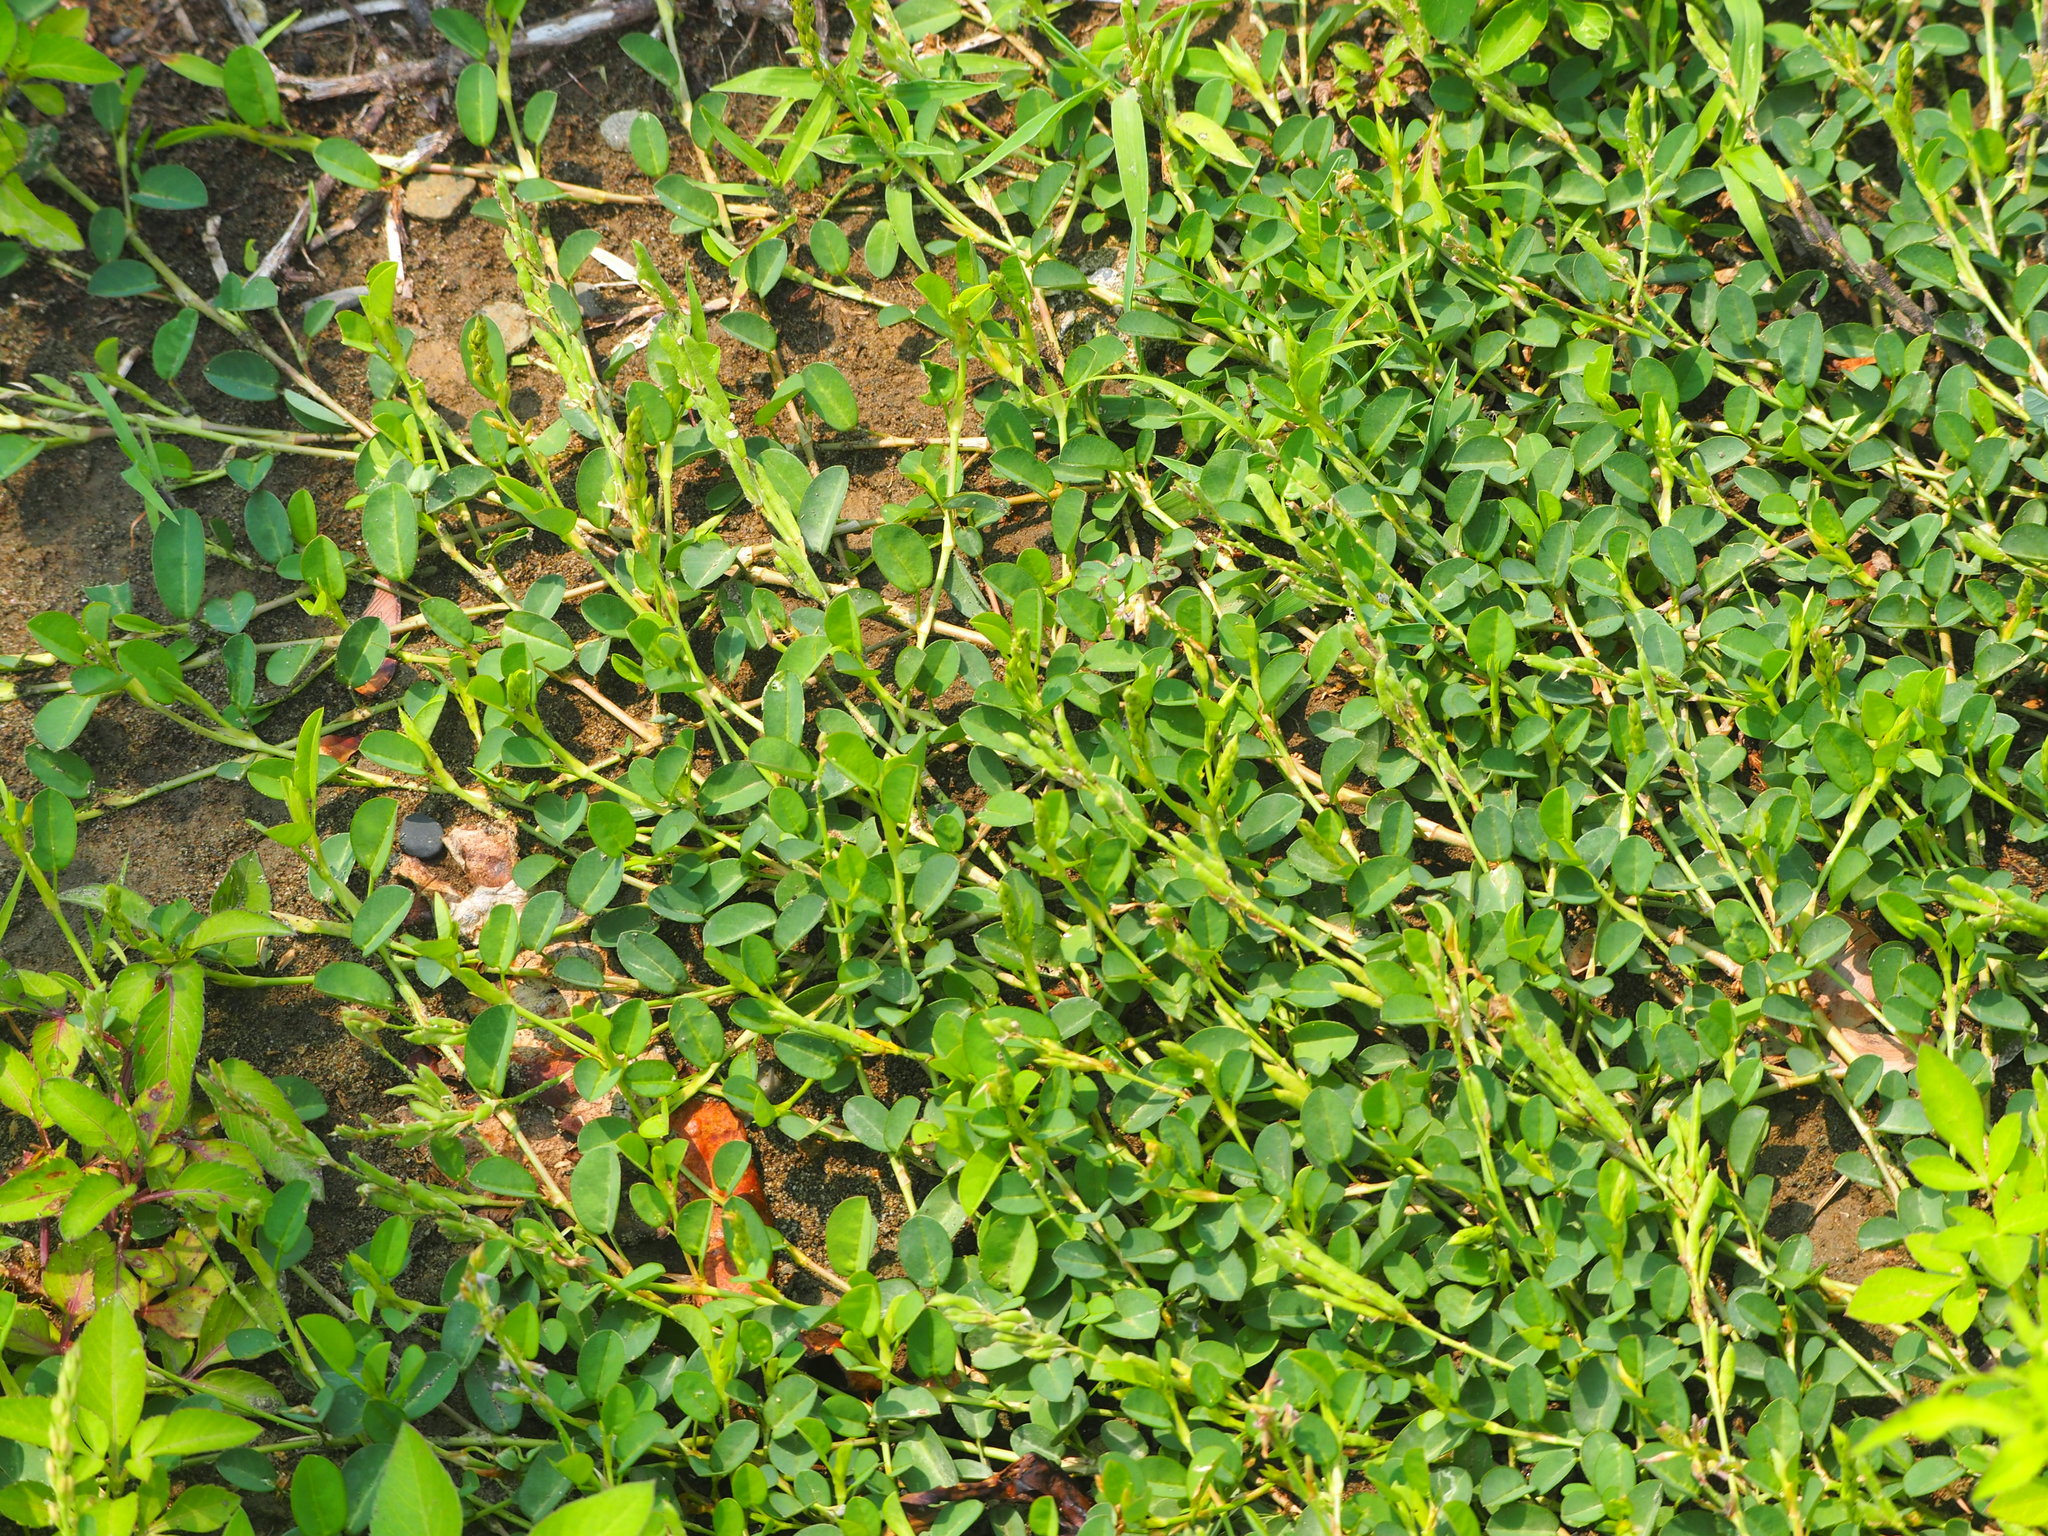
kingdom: Plantae
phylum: Tracheophyta
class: Magnoliopsida
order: Fabales
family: Fabaceae
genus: Alysicarpus
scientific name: Alysicarpus vaginalis
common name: White moneywort
